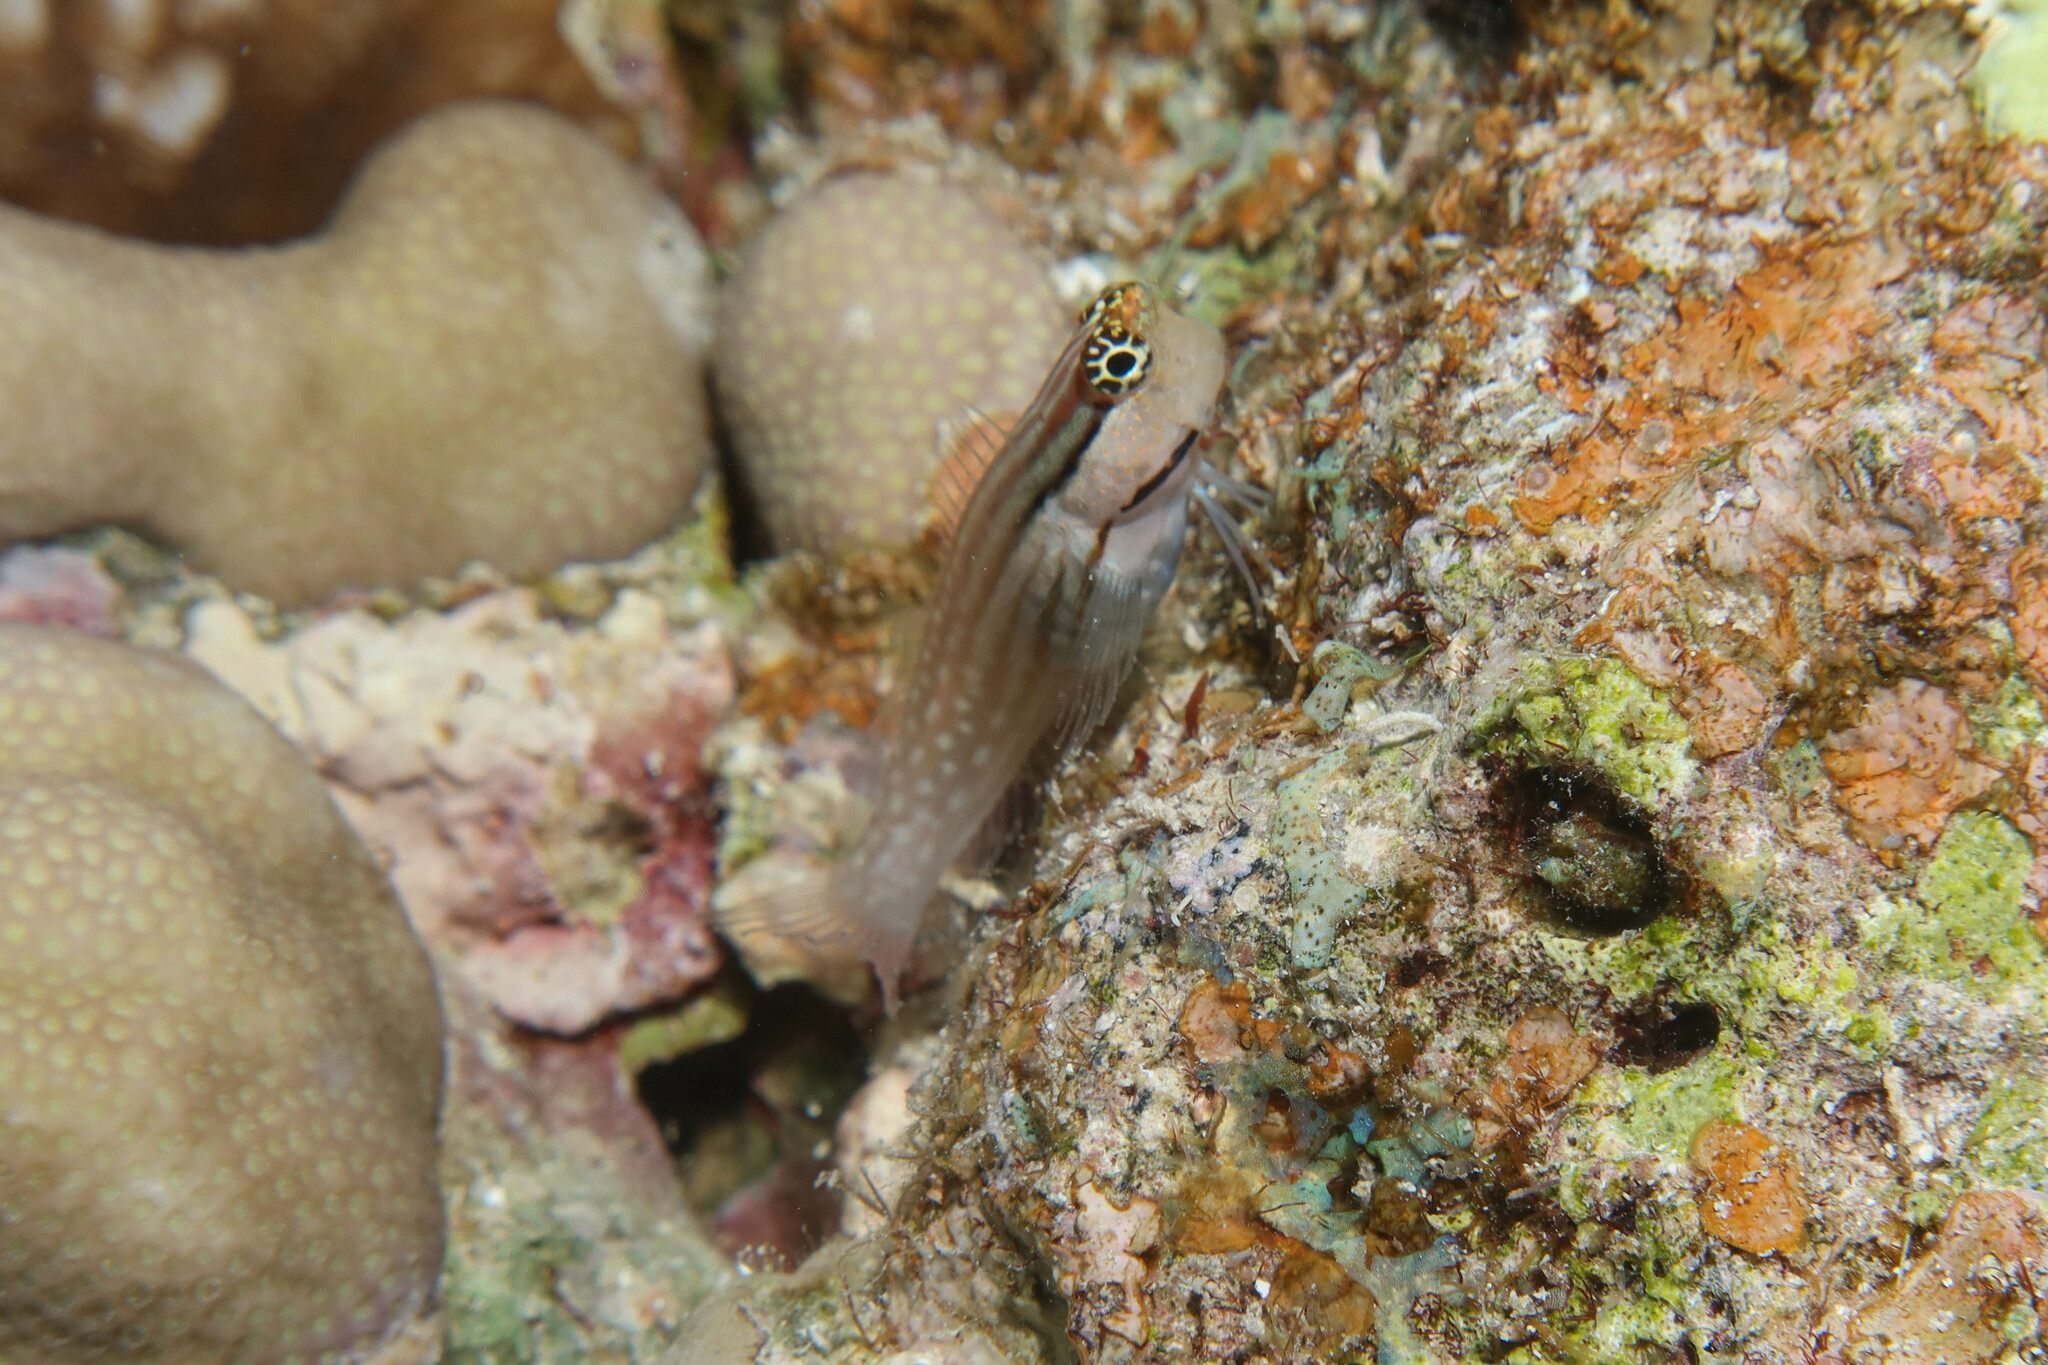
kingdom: Animalia
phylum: Chordata
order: Perciformes
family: Blenniidae
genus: Ecsenius
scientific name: Ecsenius dentex
